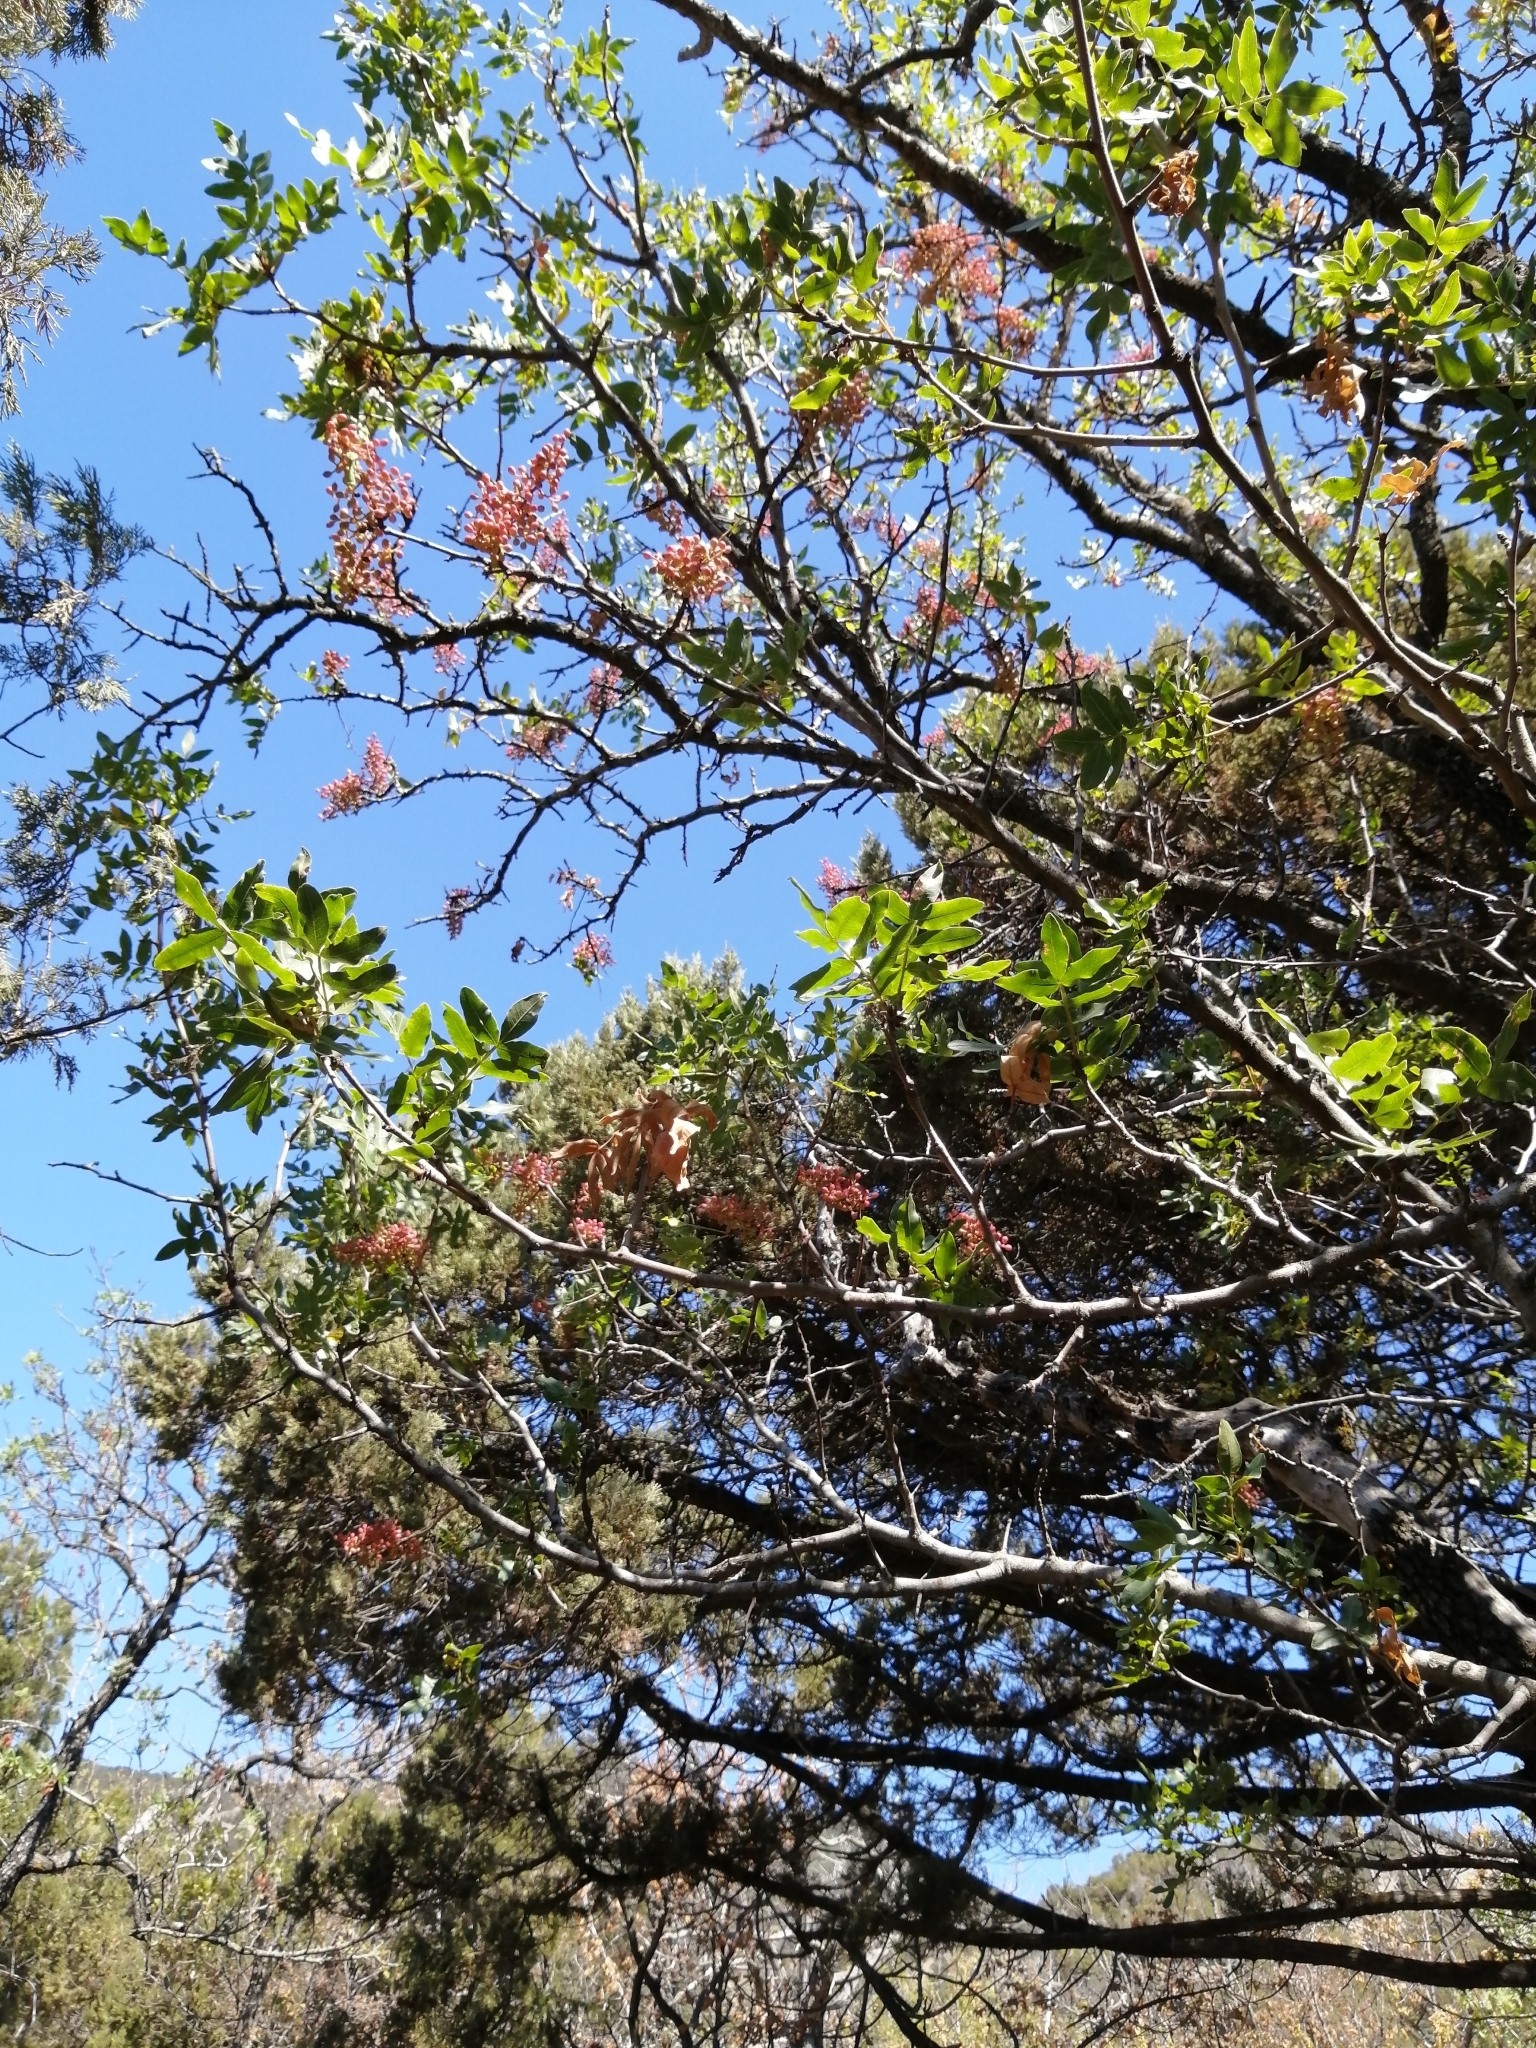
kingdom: Plantae
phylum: Tracheophyta
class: Magnoliopsida
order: Sapindales
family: Anacardiaceae
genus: Pistacia
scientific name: Pistacia atlantica
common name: Mt. atlas mastic tree
